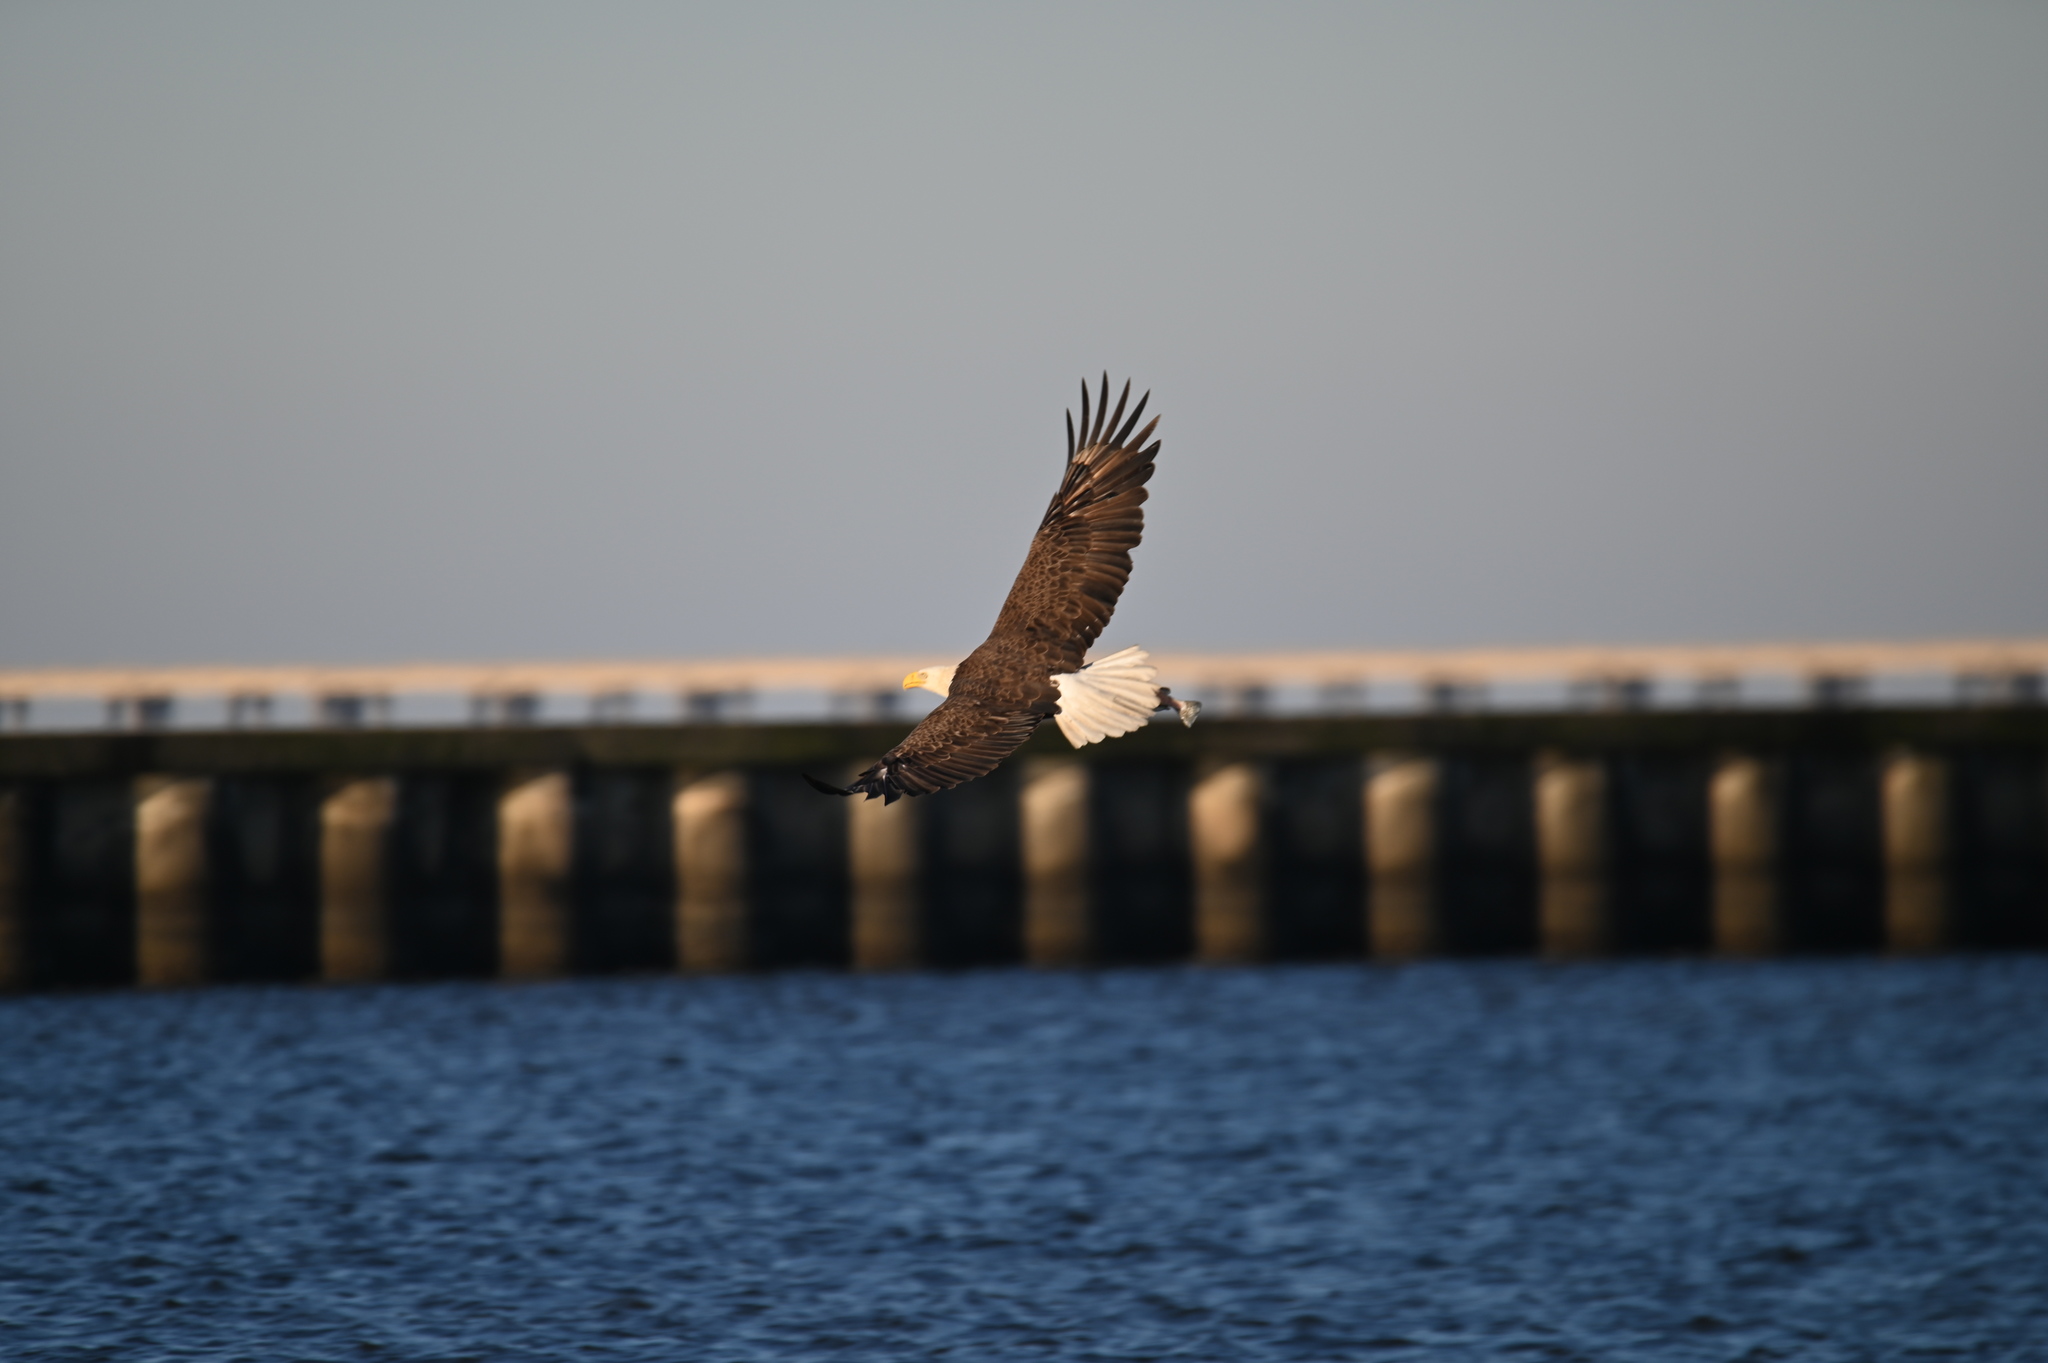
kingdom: Animalia
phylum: Chordata
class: Aves
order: Accipitriformes
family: Accipitridae
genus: Haliaeetus
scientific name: Haliaeetus leucocephalus
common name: Bald eagle
